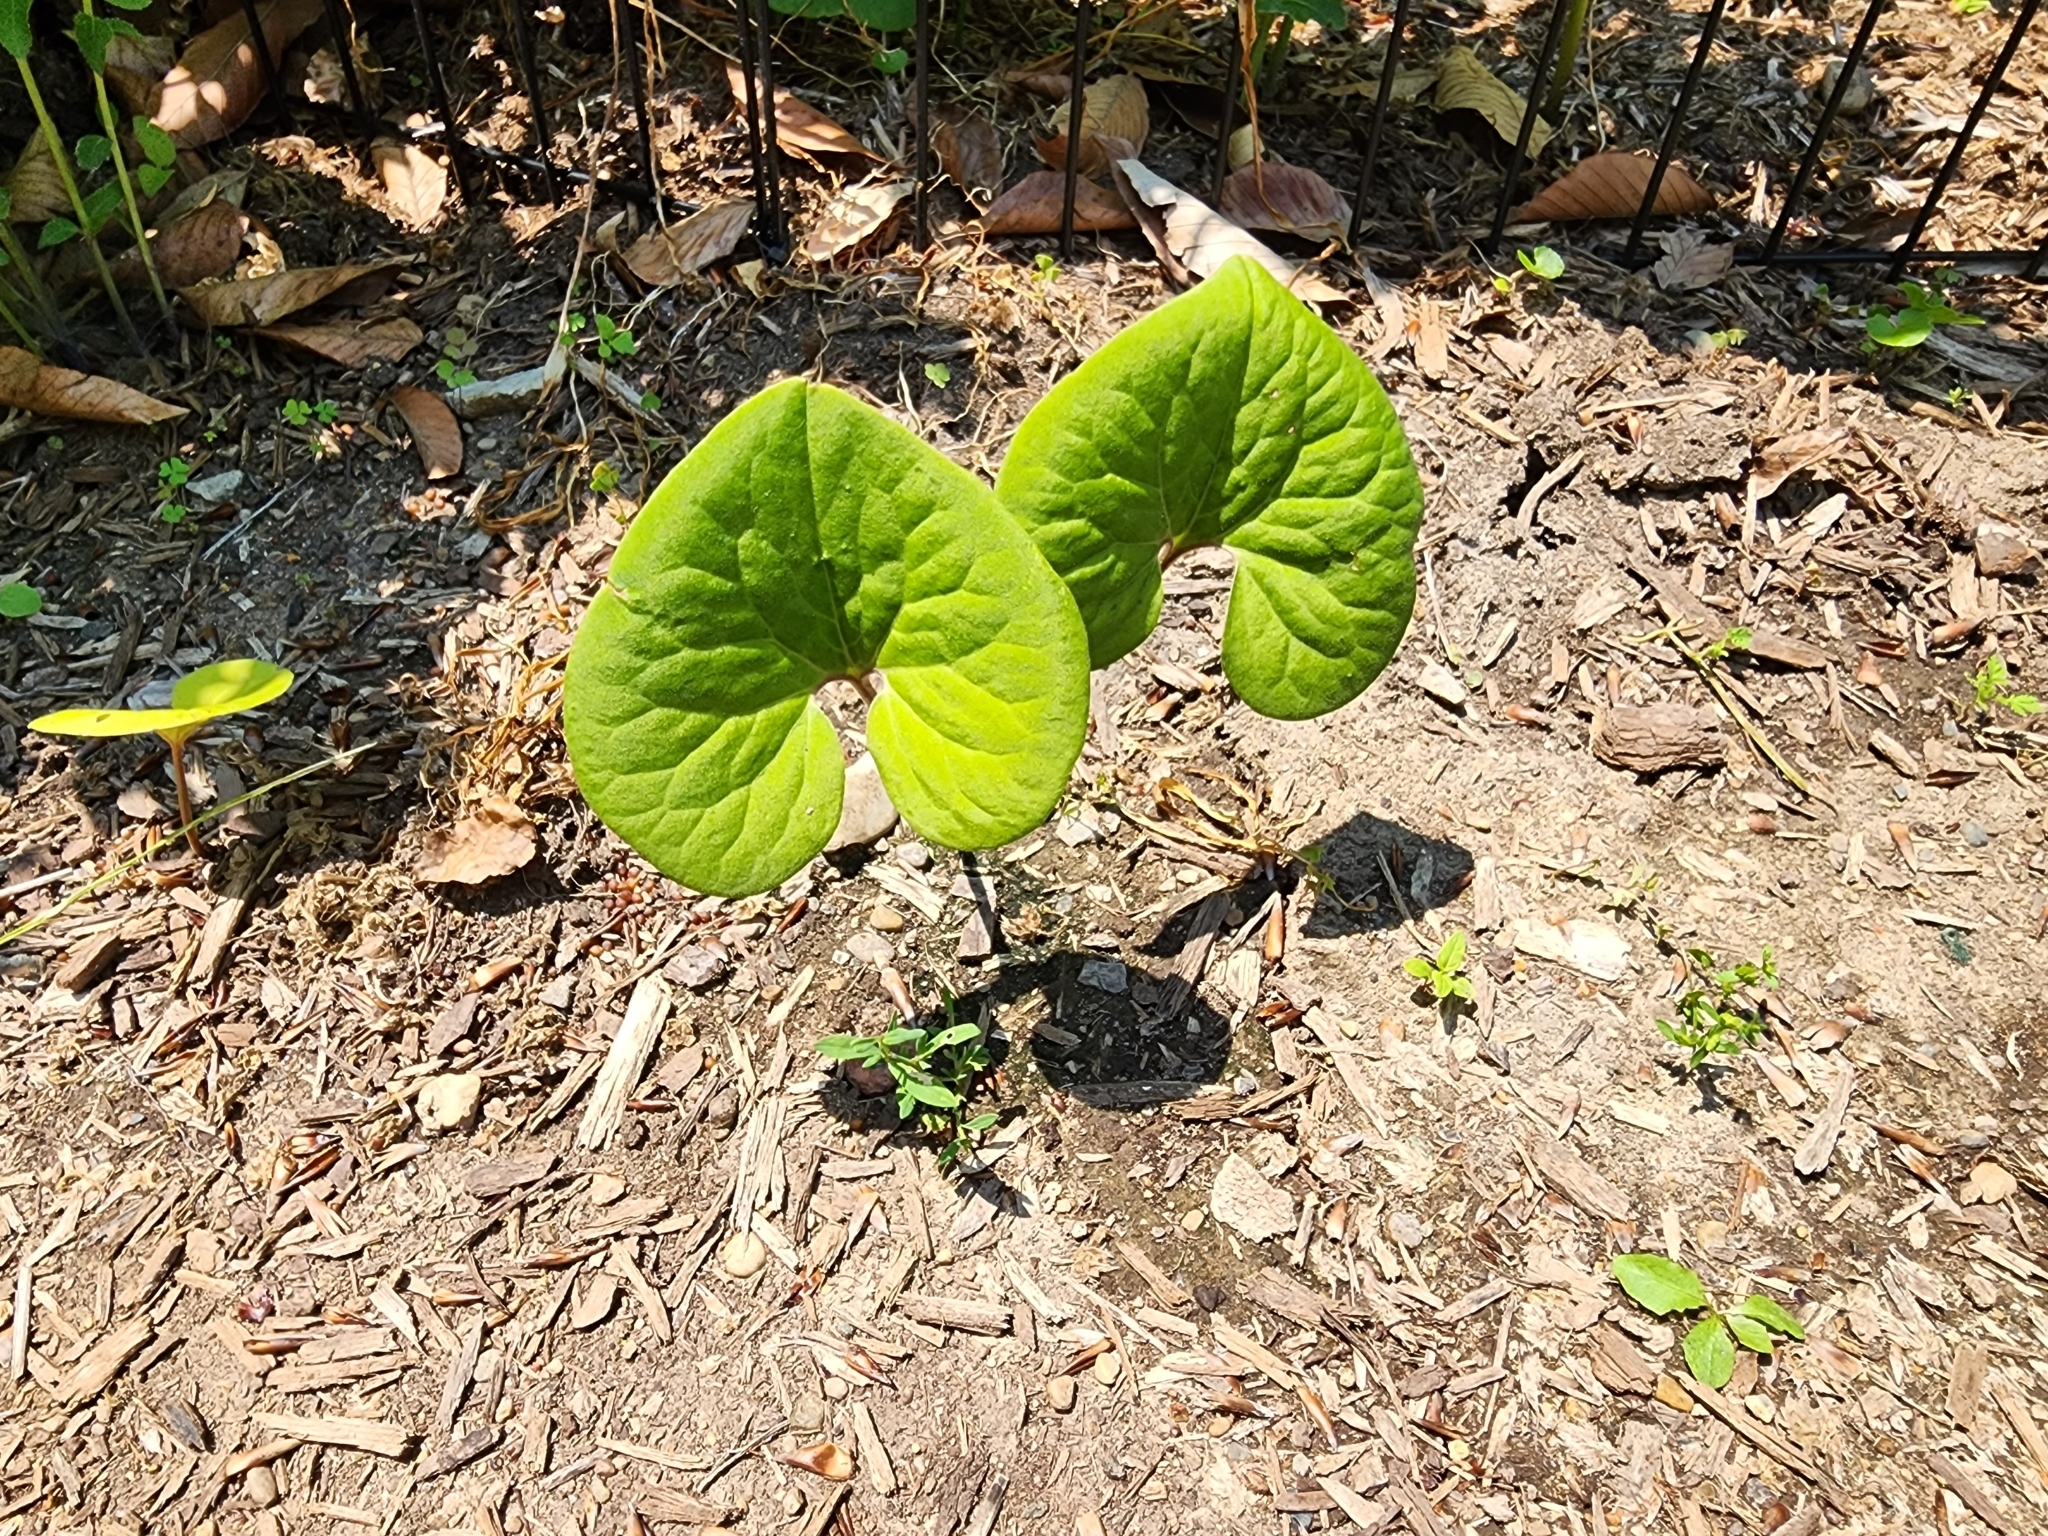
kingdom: Plantae
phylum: Tracheophyta
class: Magnoliopsida
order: Piperales
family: Aristolochiaceae
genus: Asarum
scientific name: Asarum canadense
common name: Wild ginger
